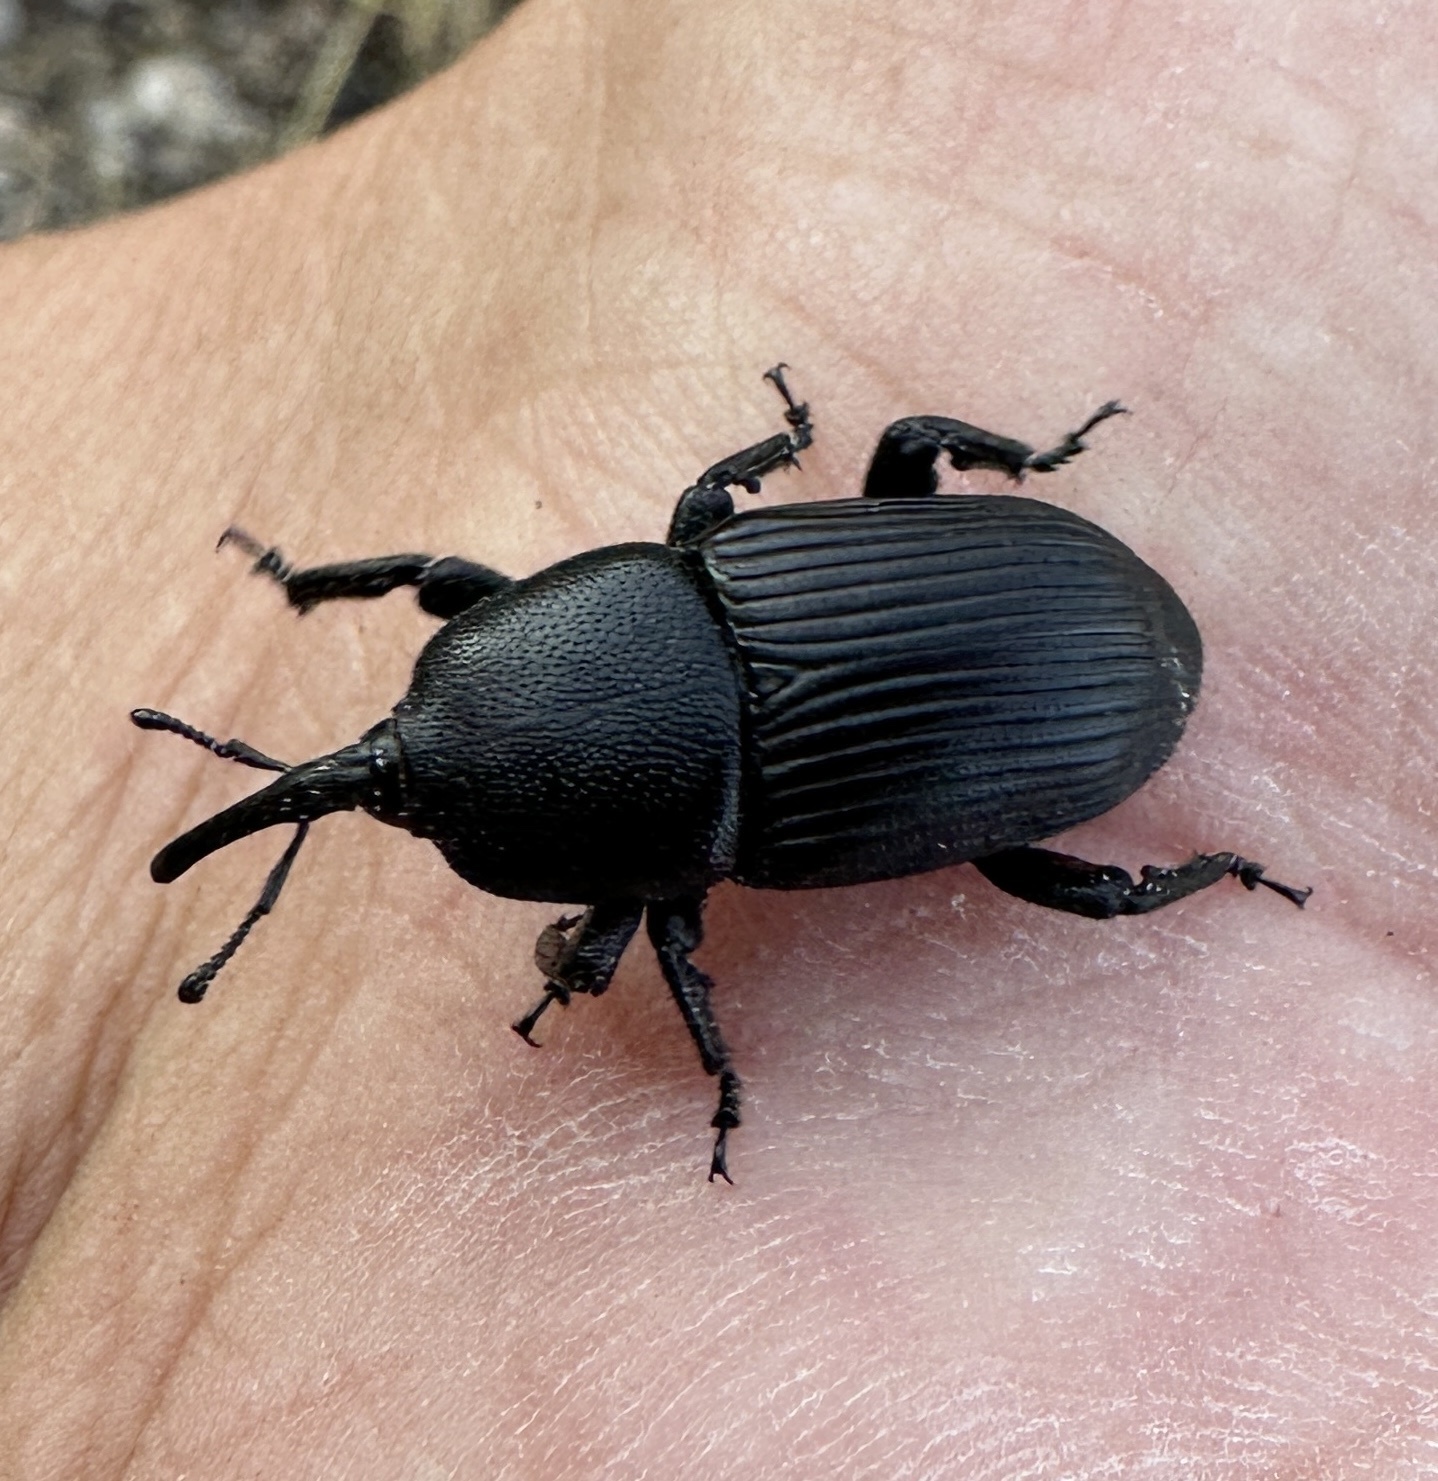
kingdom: Animalia
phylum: Arthropoda
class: Insecta
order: Coleoptera
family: Dryophthoridae
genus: Scyphophorus
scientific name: Scyphophorus yuccae
